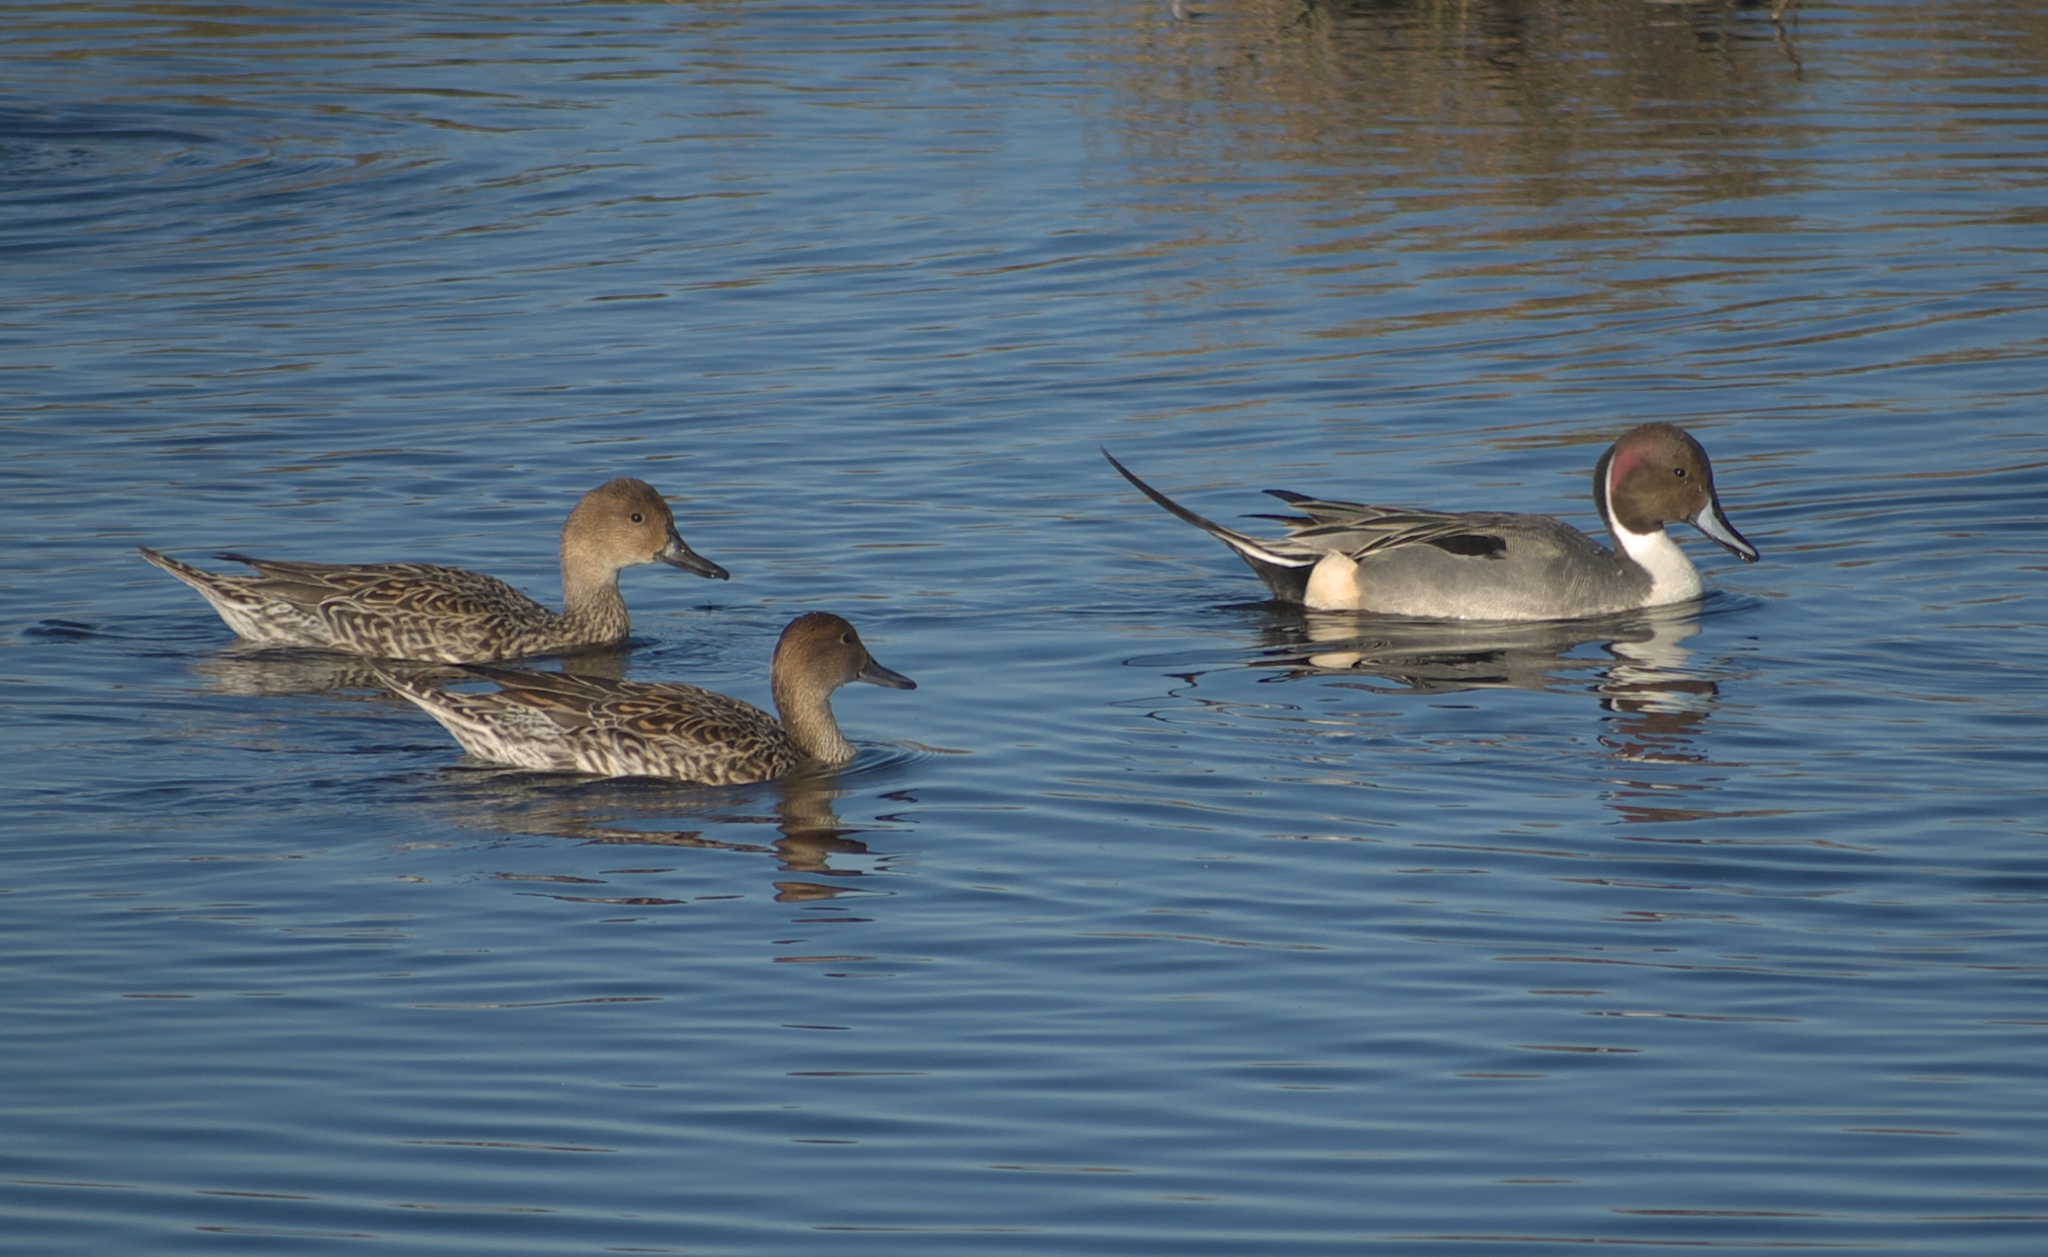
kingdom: Animalia
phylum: Chordata
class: Aves
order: Anseriformes
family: Anatidae
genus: Anas
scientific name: Anas acuta
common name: Northern pintail
